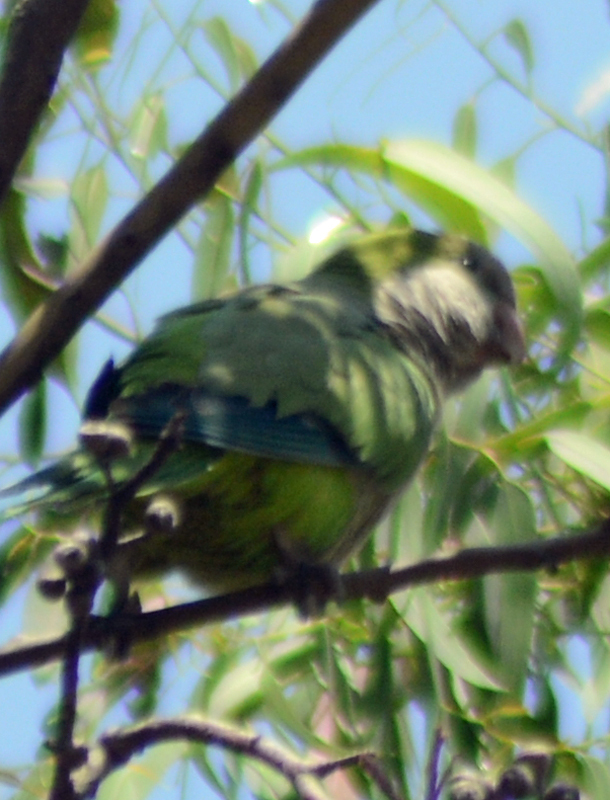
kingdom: Animalia
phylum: Chordata
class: Aves
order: Psittaciformes
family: Psittacidae
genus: Myiopsitta
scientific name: Myiopsitta monachus
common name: Monk parakeet
